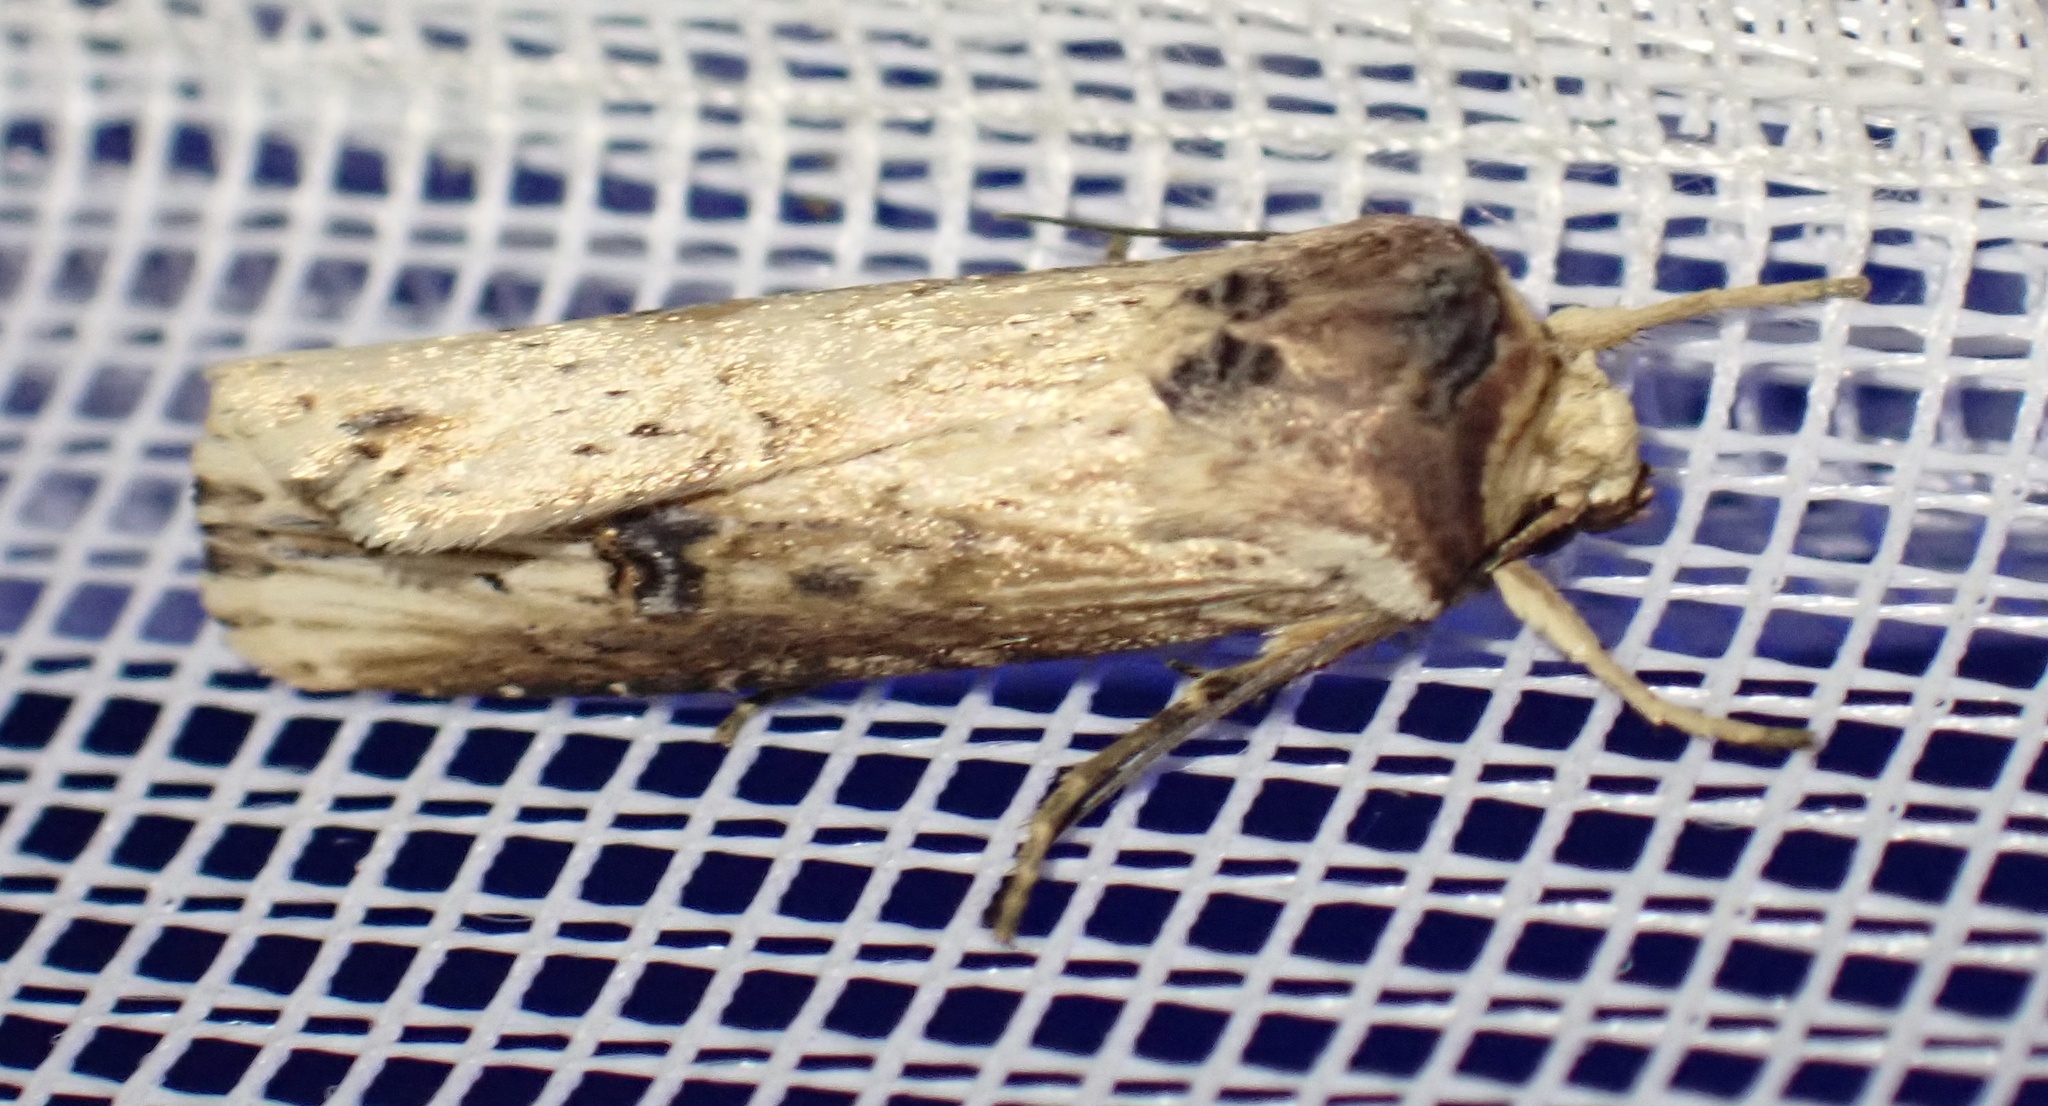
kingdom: Animalia
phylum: Arthropoda
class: Insecta
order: Lepidoptera
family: Noctuidae
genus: Axylia
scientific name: Axylia putris
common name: Flame
